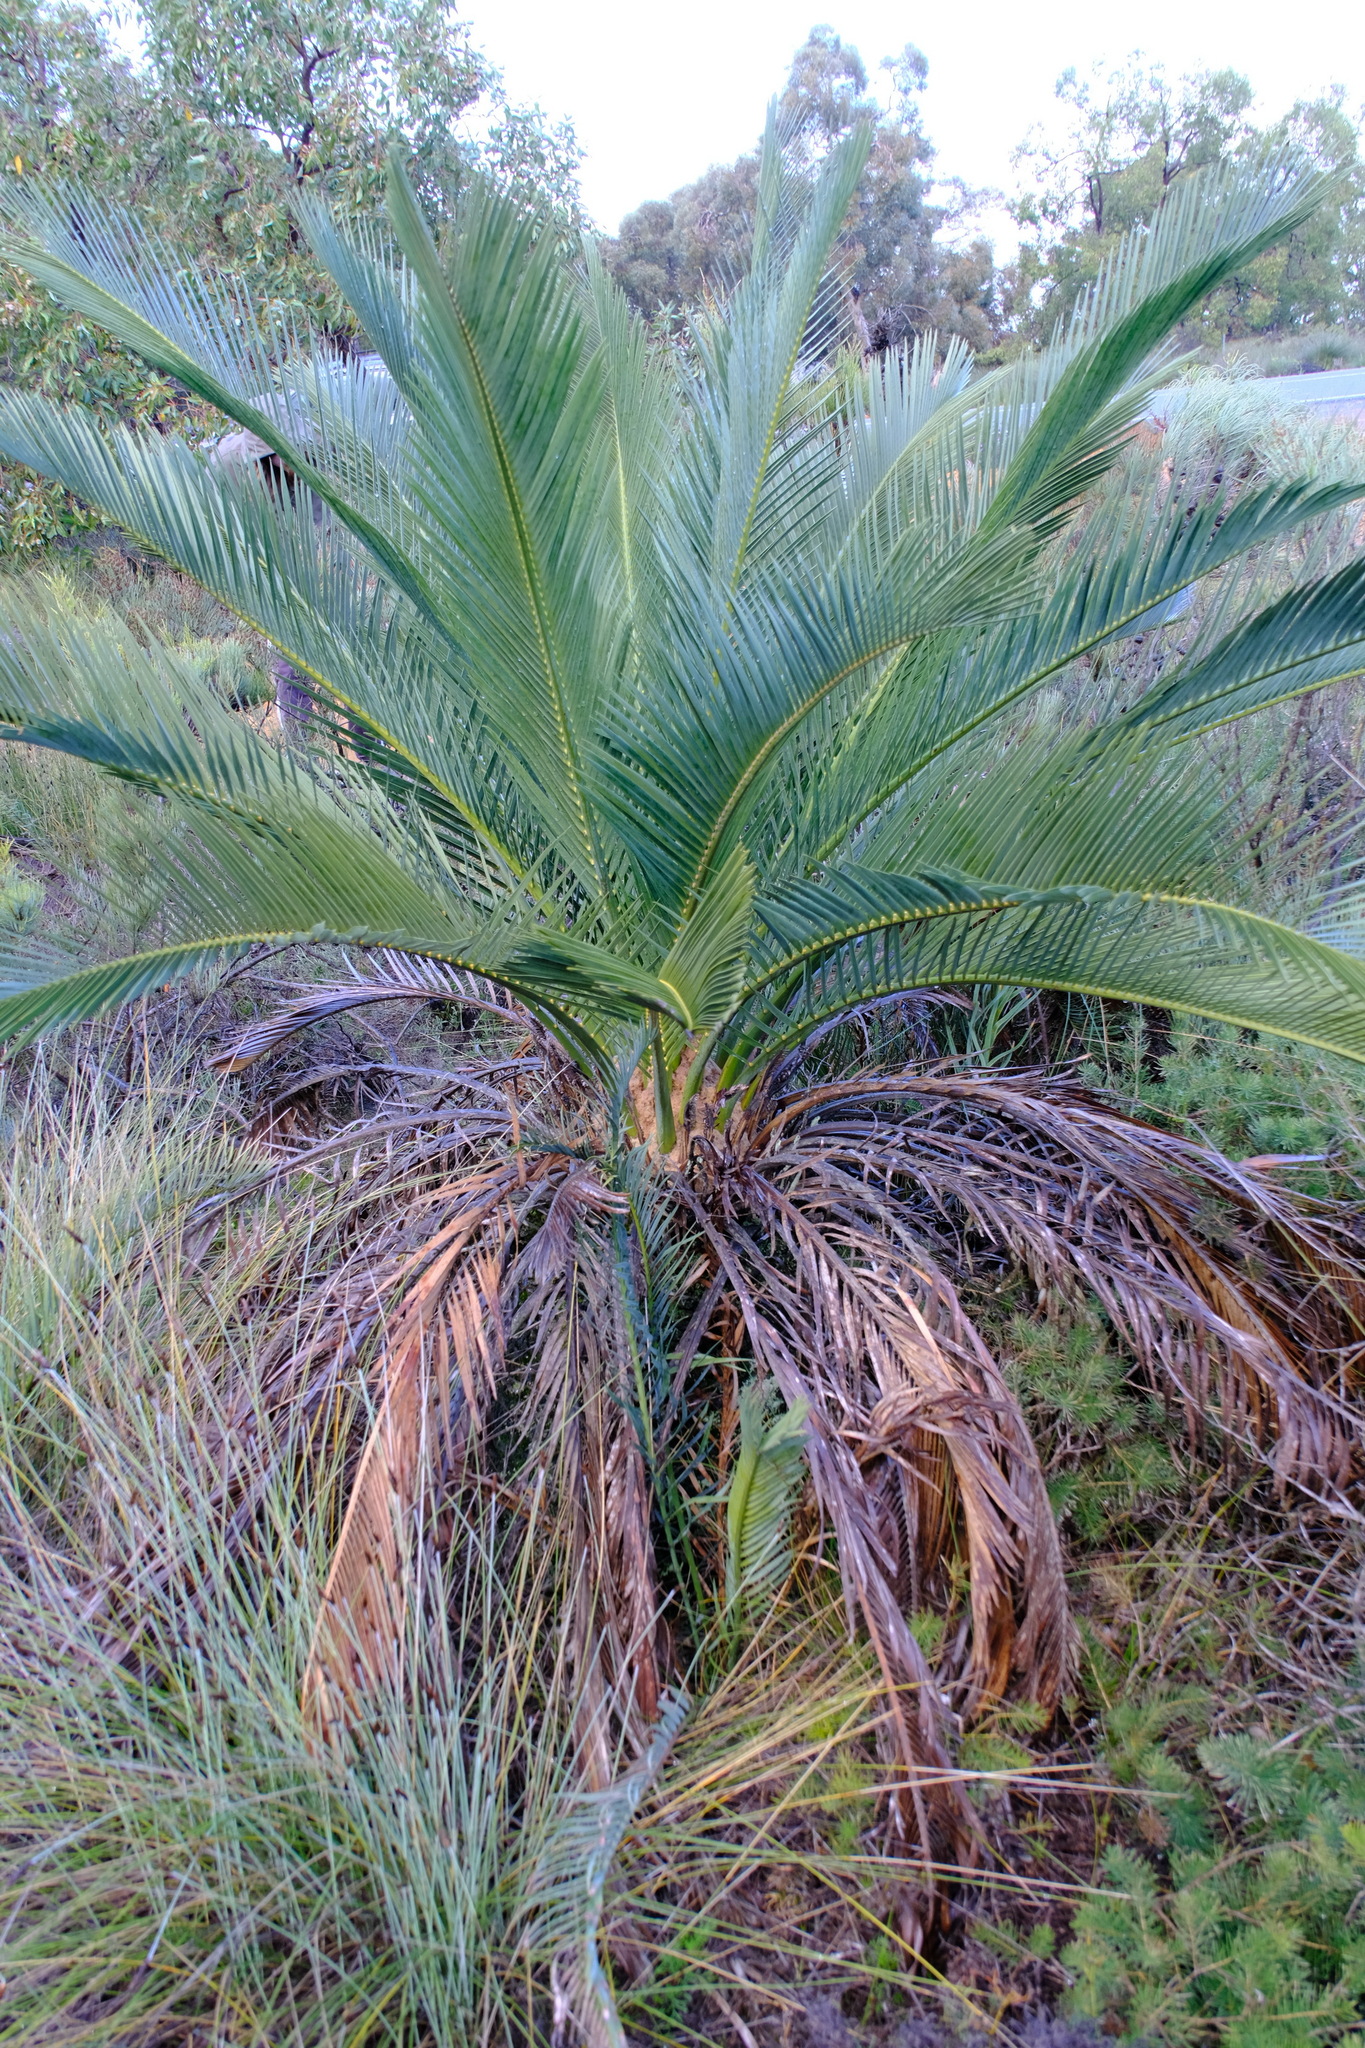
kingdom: Plantae
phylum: Tracheophyta
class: Cycadopsida
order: Cycadales
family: Zamiaceae
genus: Macrozamia
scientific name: Macrozamia fraseri
